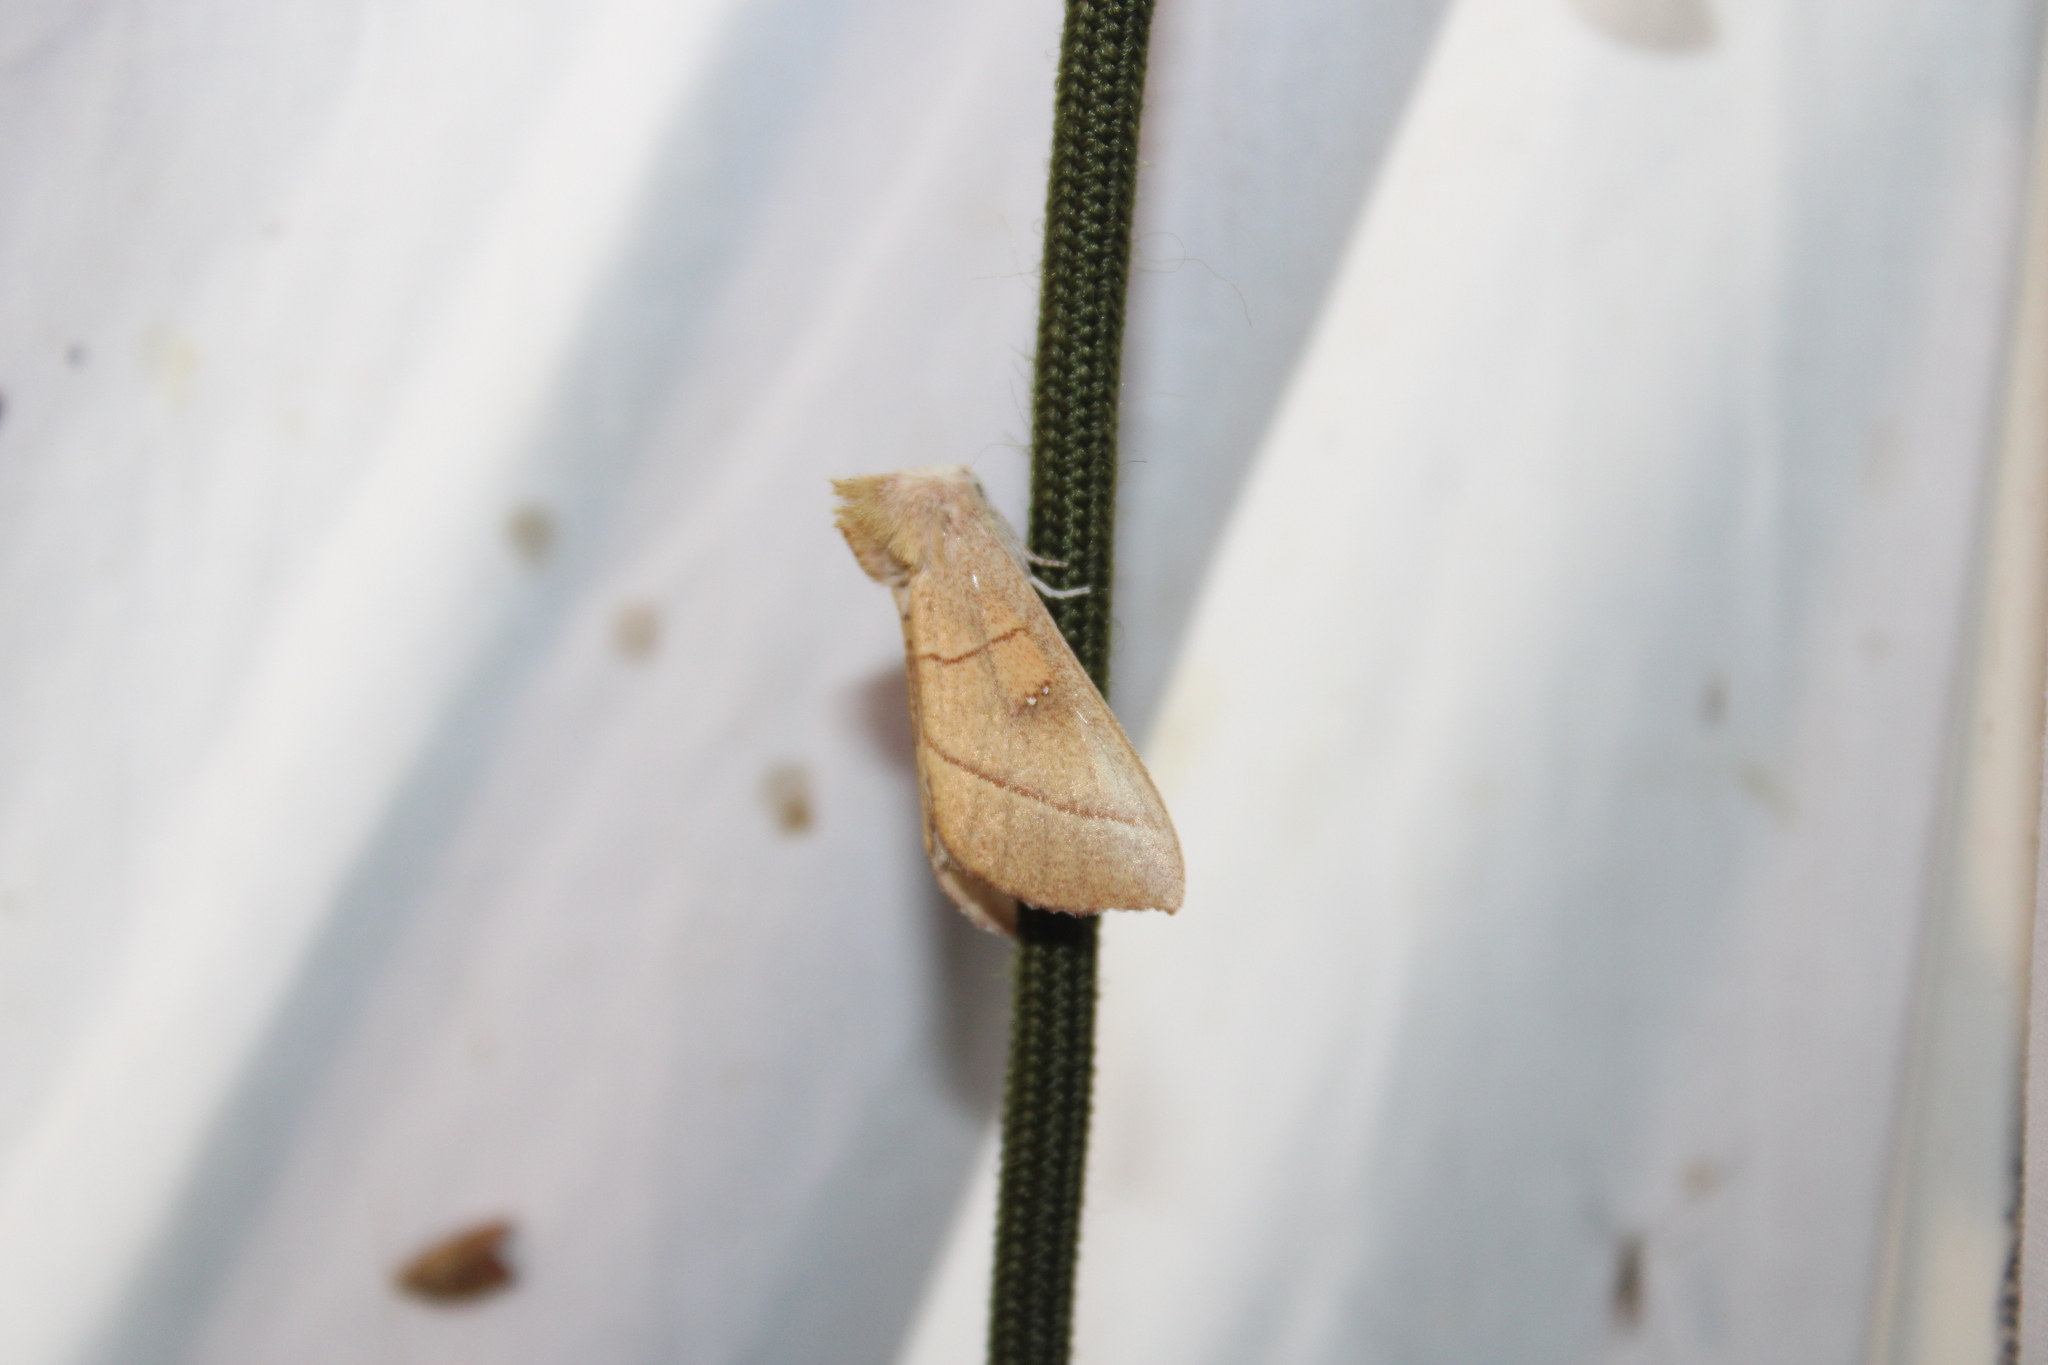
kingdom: Animalia
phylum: Arthropoda
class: Insecta
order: Lepidoptera
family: Notodontidae
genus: Nadata
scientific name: Nadata gibbosa
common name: White-dotted prominent
